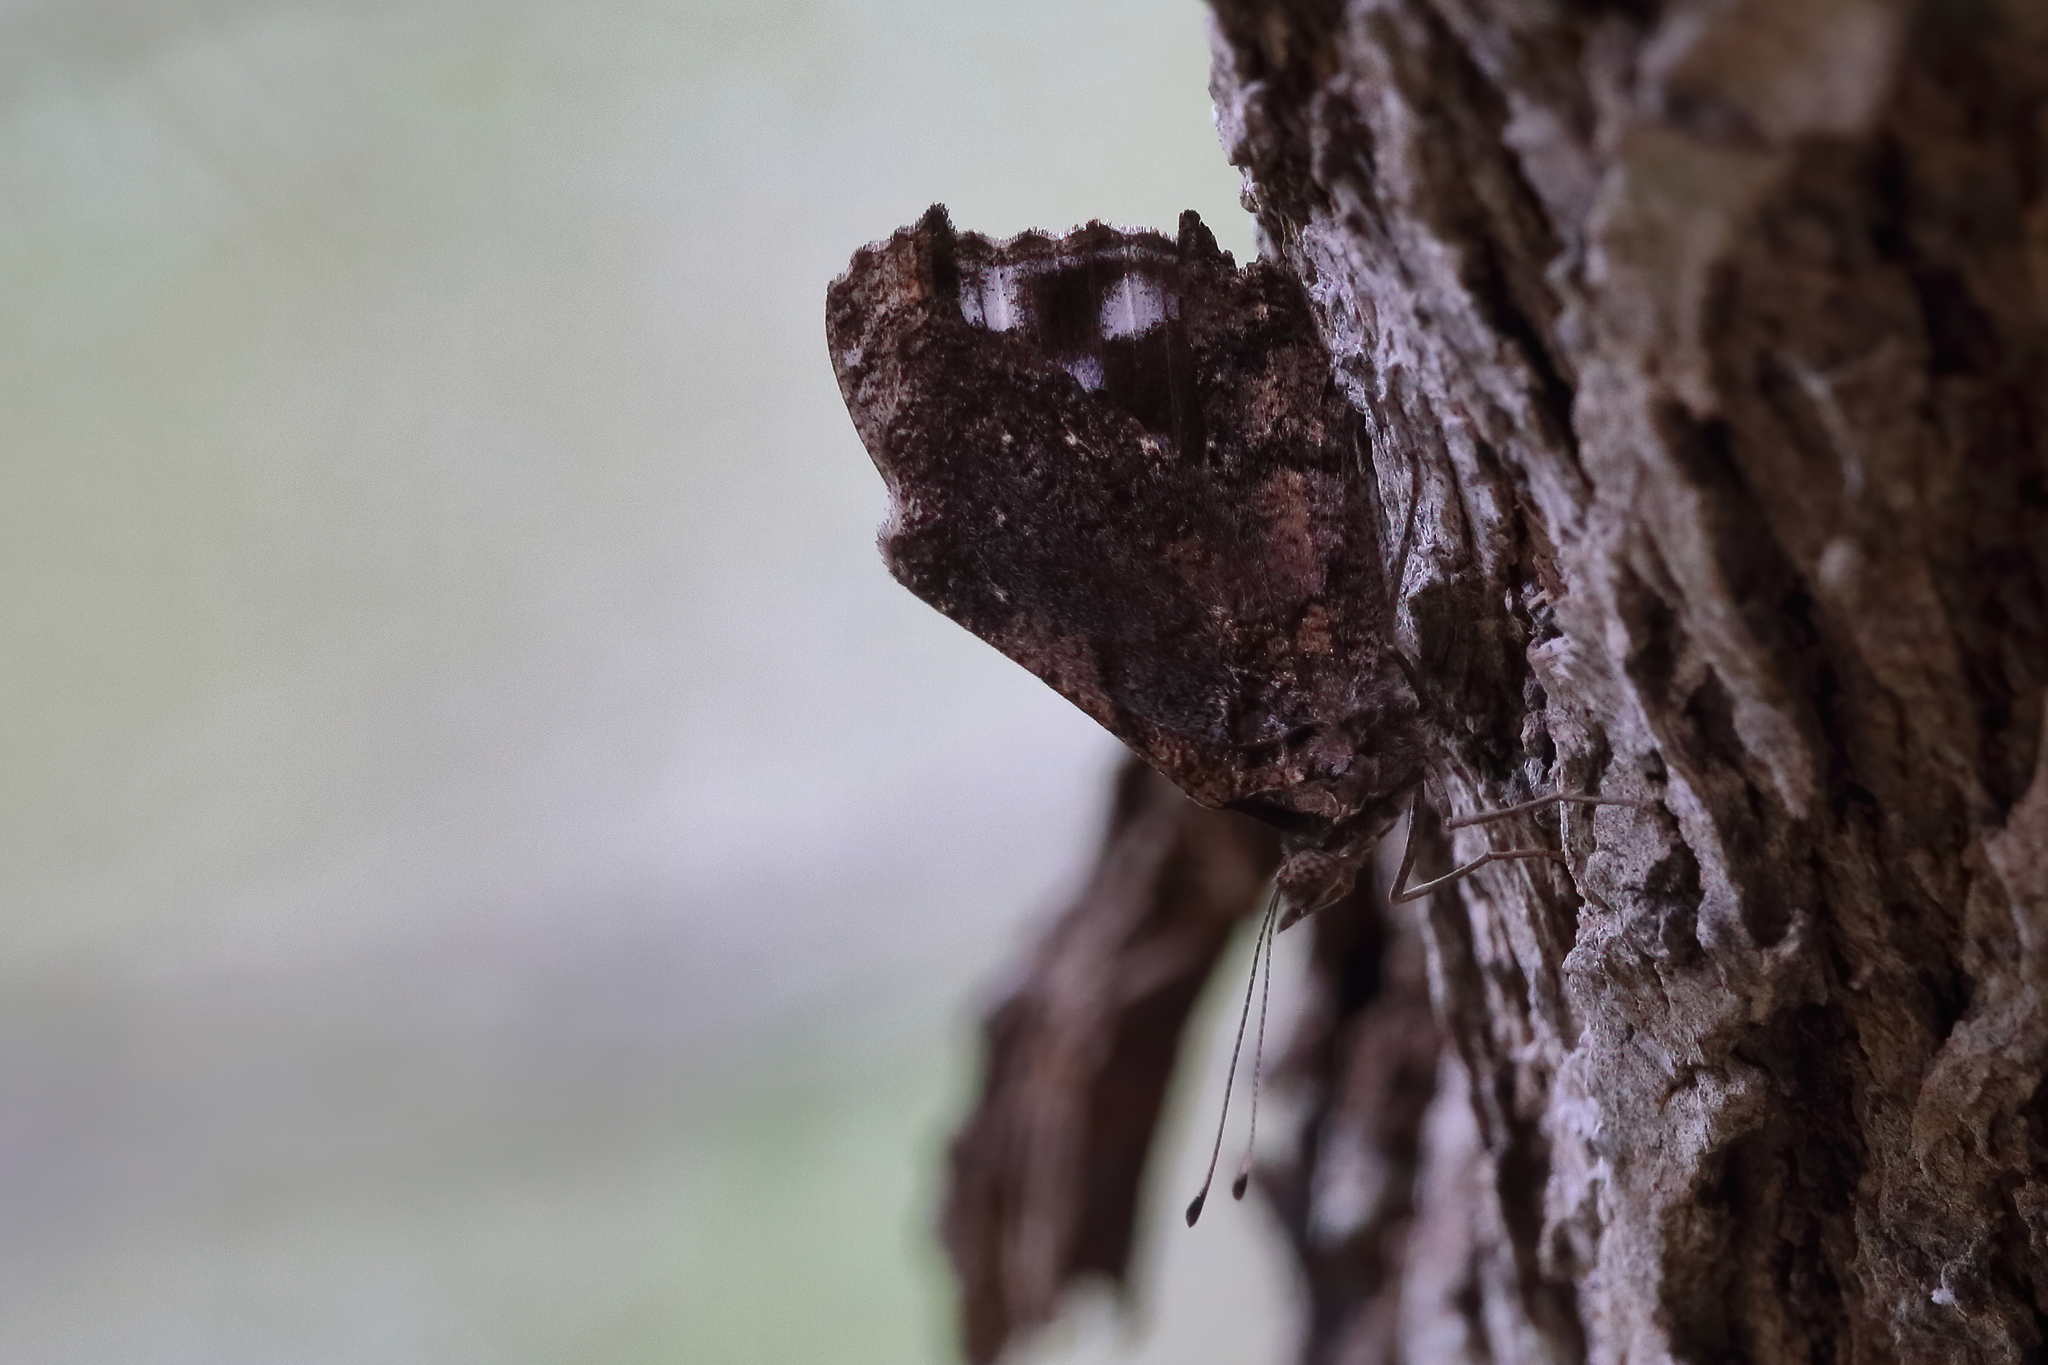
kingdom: Animalia
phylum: Arthropoda
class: Insecta
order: Lepidoptera
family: Nymphalidae
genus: Myscelia
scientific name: Myscelia ethusa
